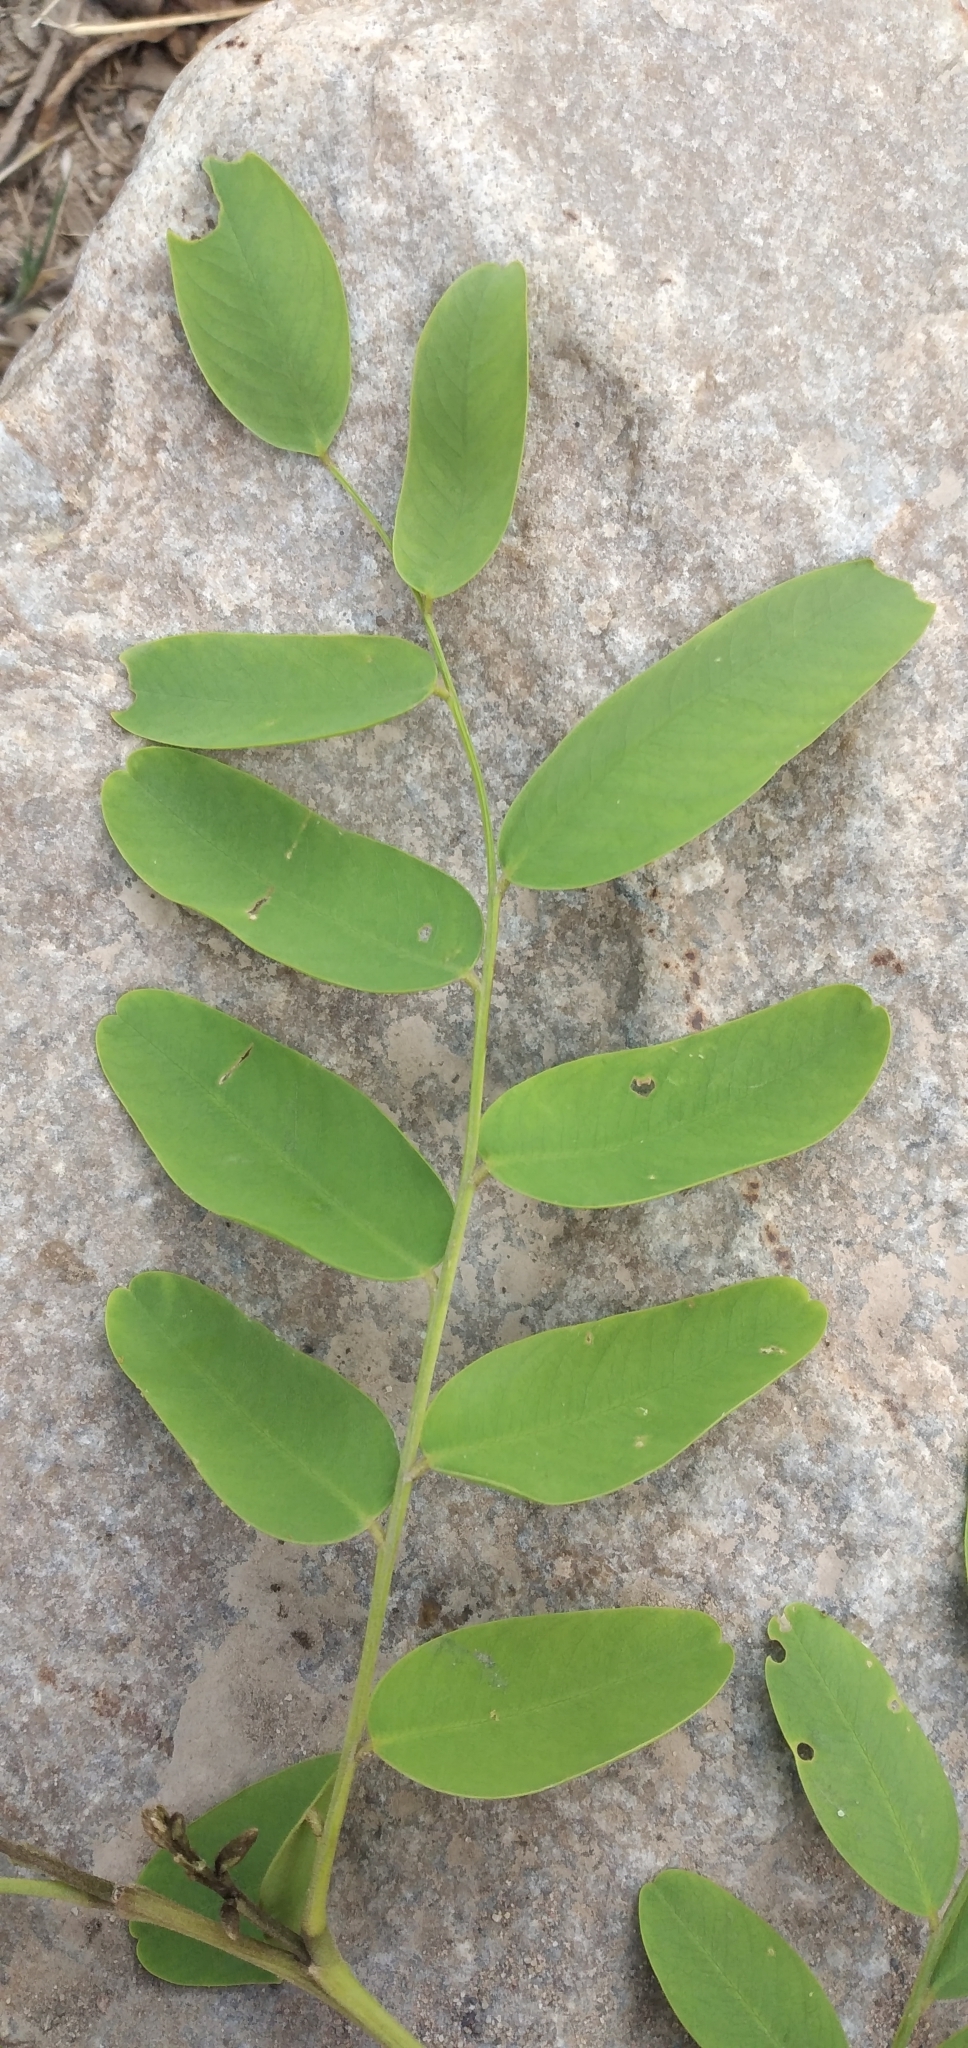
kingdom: Plantae
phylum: Tracheophyta
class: Magnoliopsida
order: Fabales
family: Fabaceae
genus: Tipuana
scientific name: Tipuana tipu
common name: Tiputree
